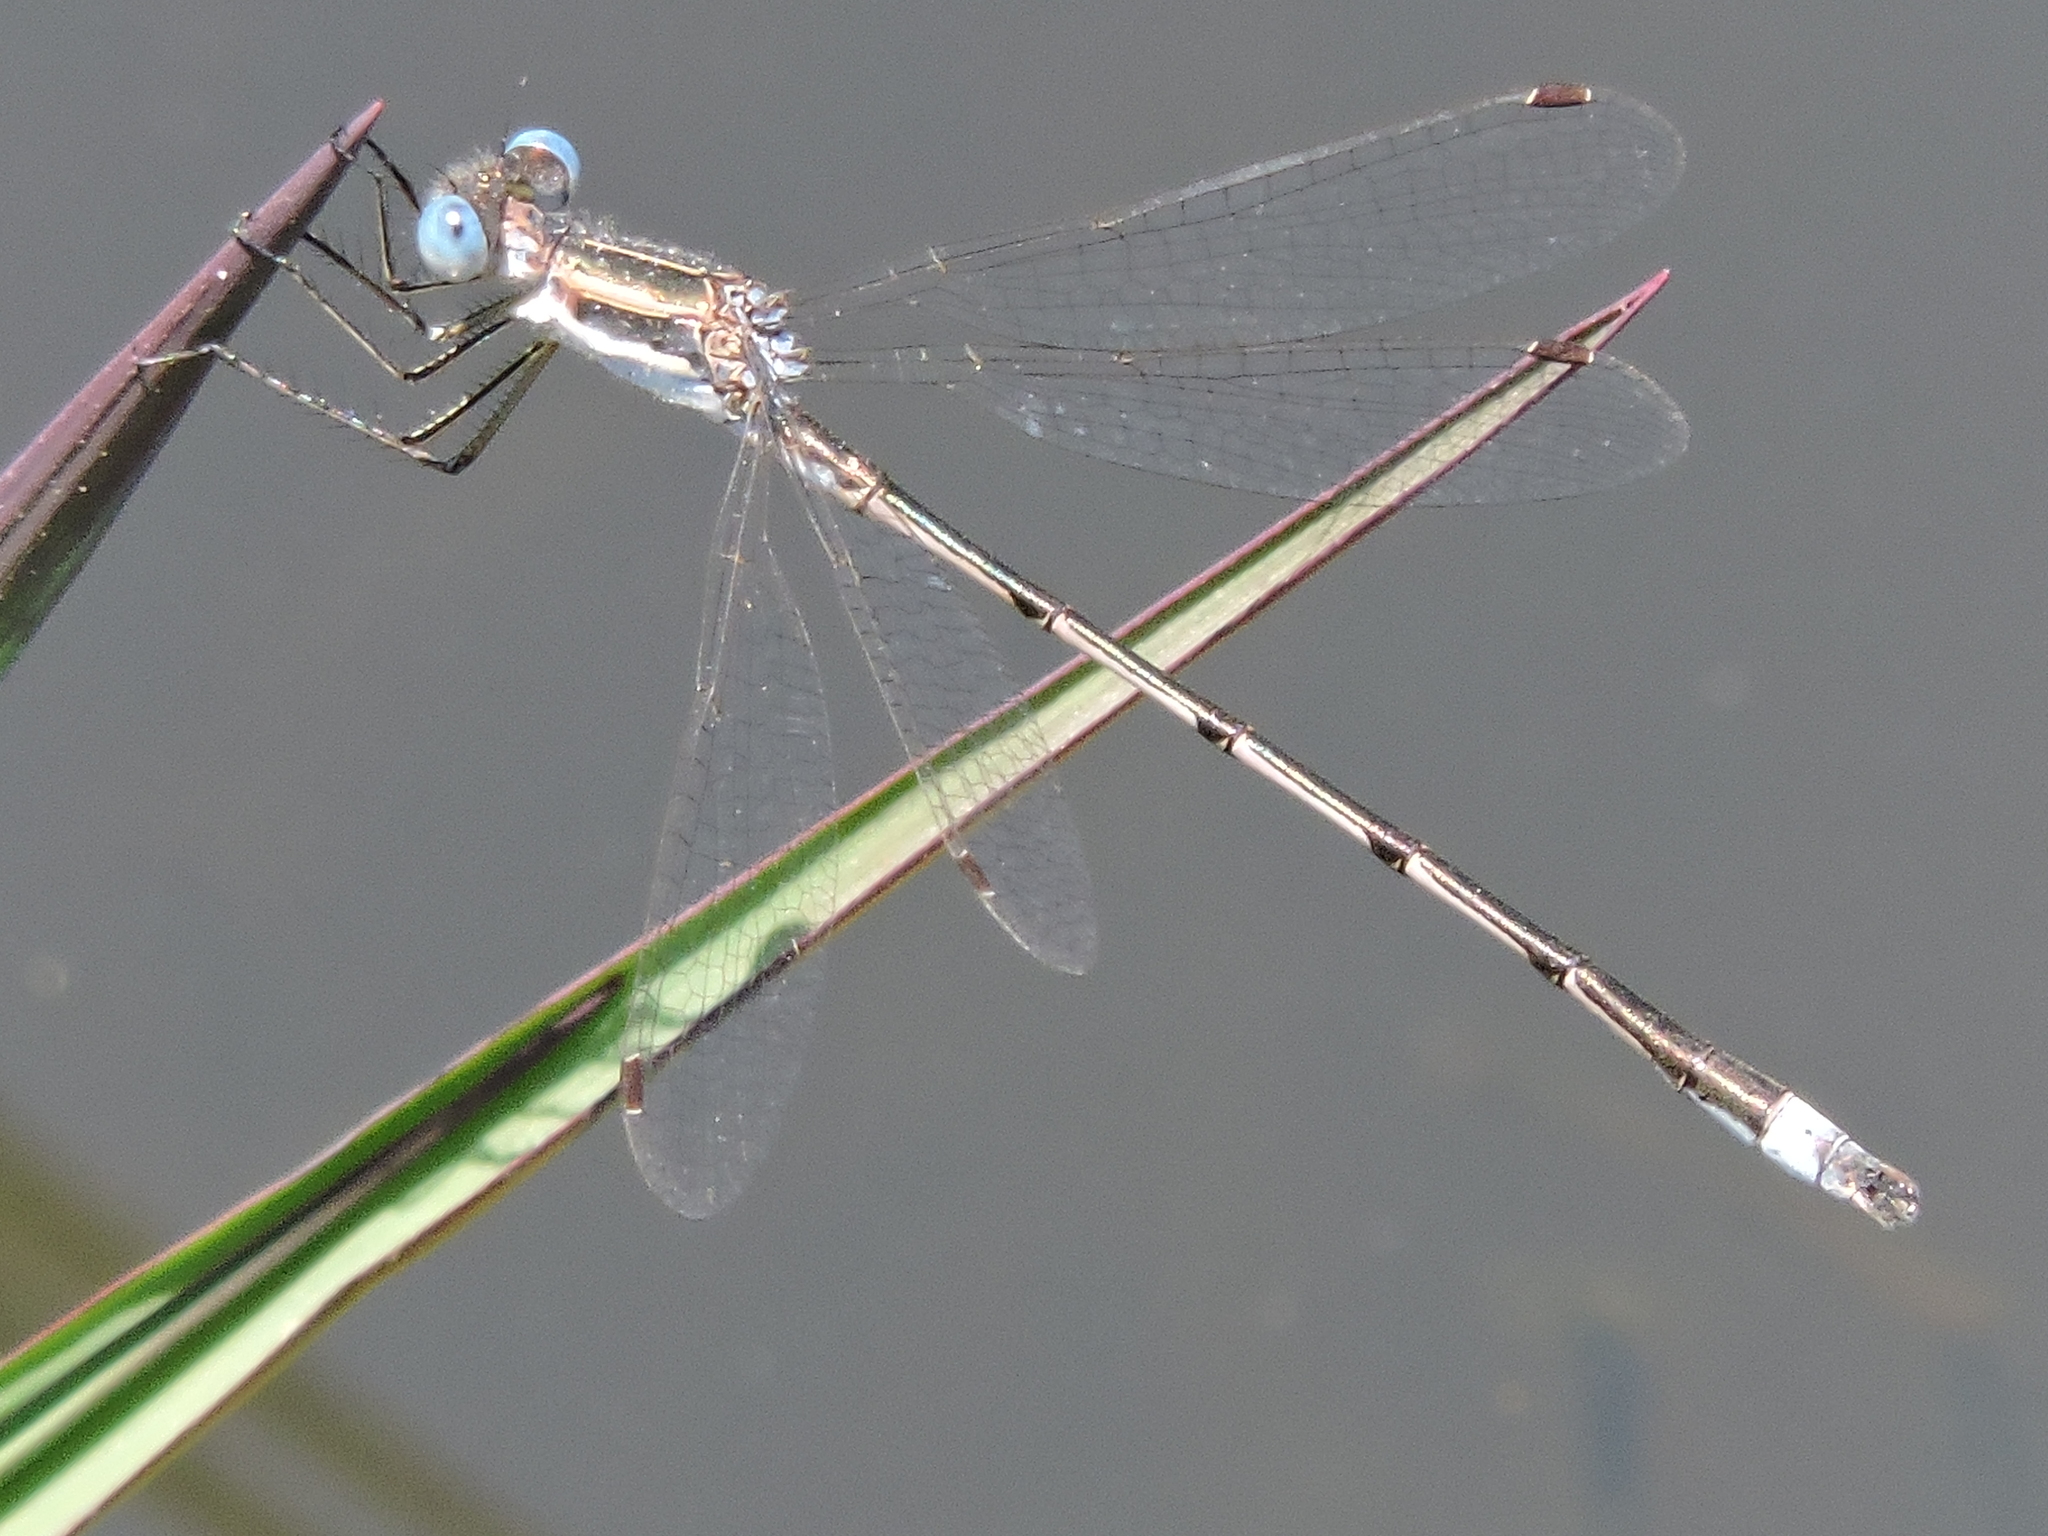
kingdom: Animalia
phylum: Arthropoda
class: Insecta
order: Odonata
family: Lestidae
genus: Lestes
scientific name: Lestes australis
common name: Southern spreadwing
